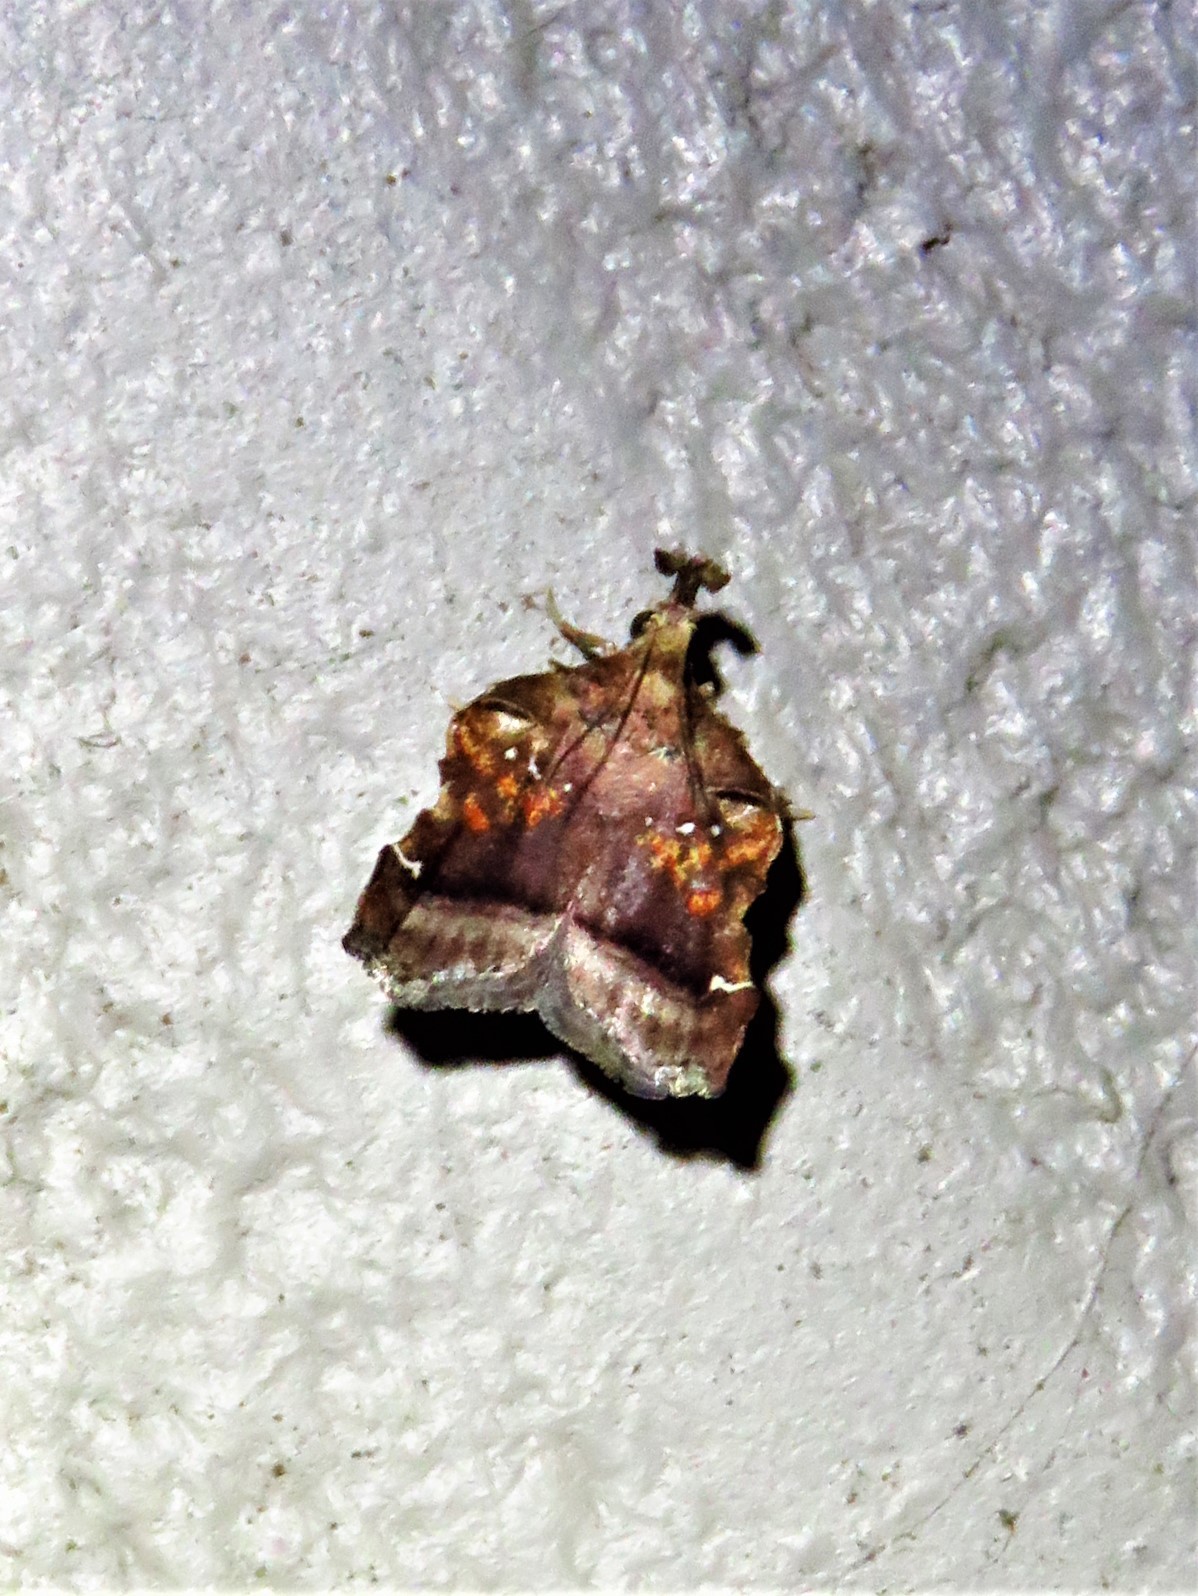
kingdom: Animalia
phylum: Arthropoda
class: Insecta
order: Lepidoptera
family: Pyralidae
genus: Clydonopteron
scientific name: Clydonopteron sacculana
